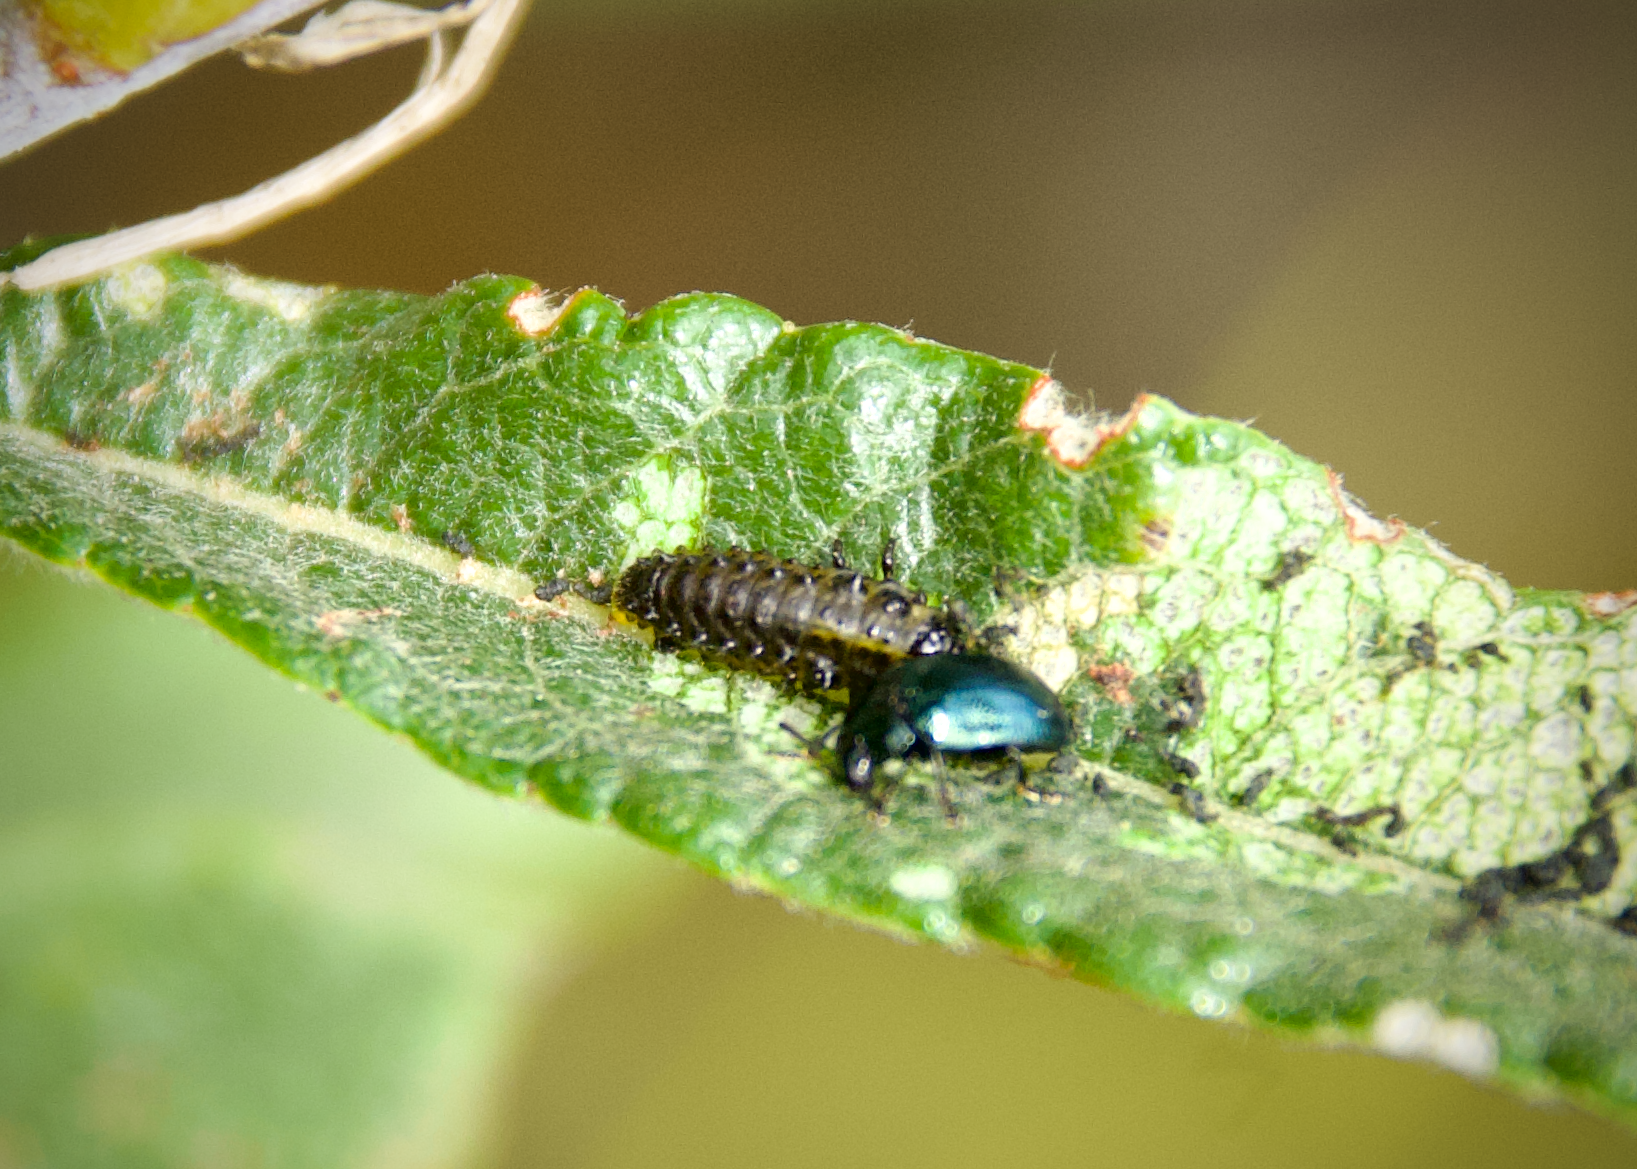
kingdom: Animalia
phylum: Arthropoda
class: Insecta
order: Coleoptera
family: Chrysomelidae
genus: Plagiodera
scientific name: Plagiodera versicolora
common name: Imported willow leaf beetle
